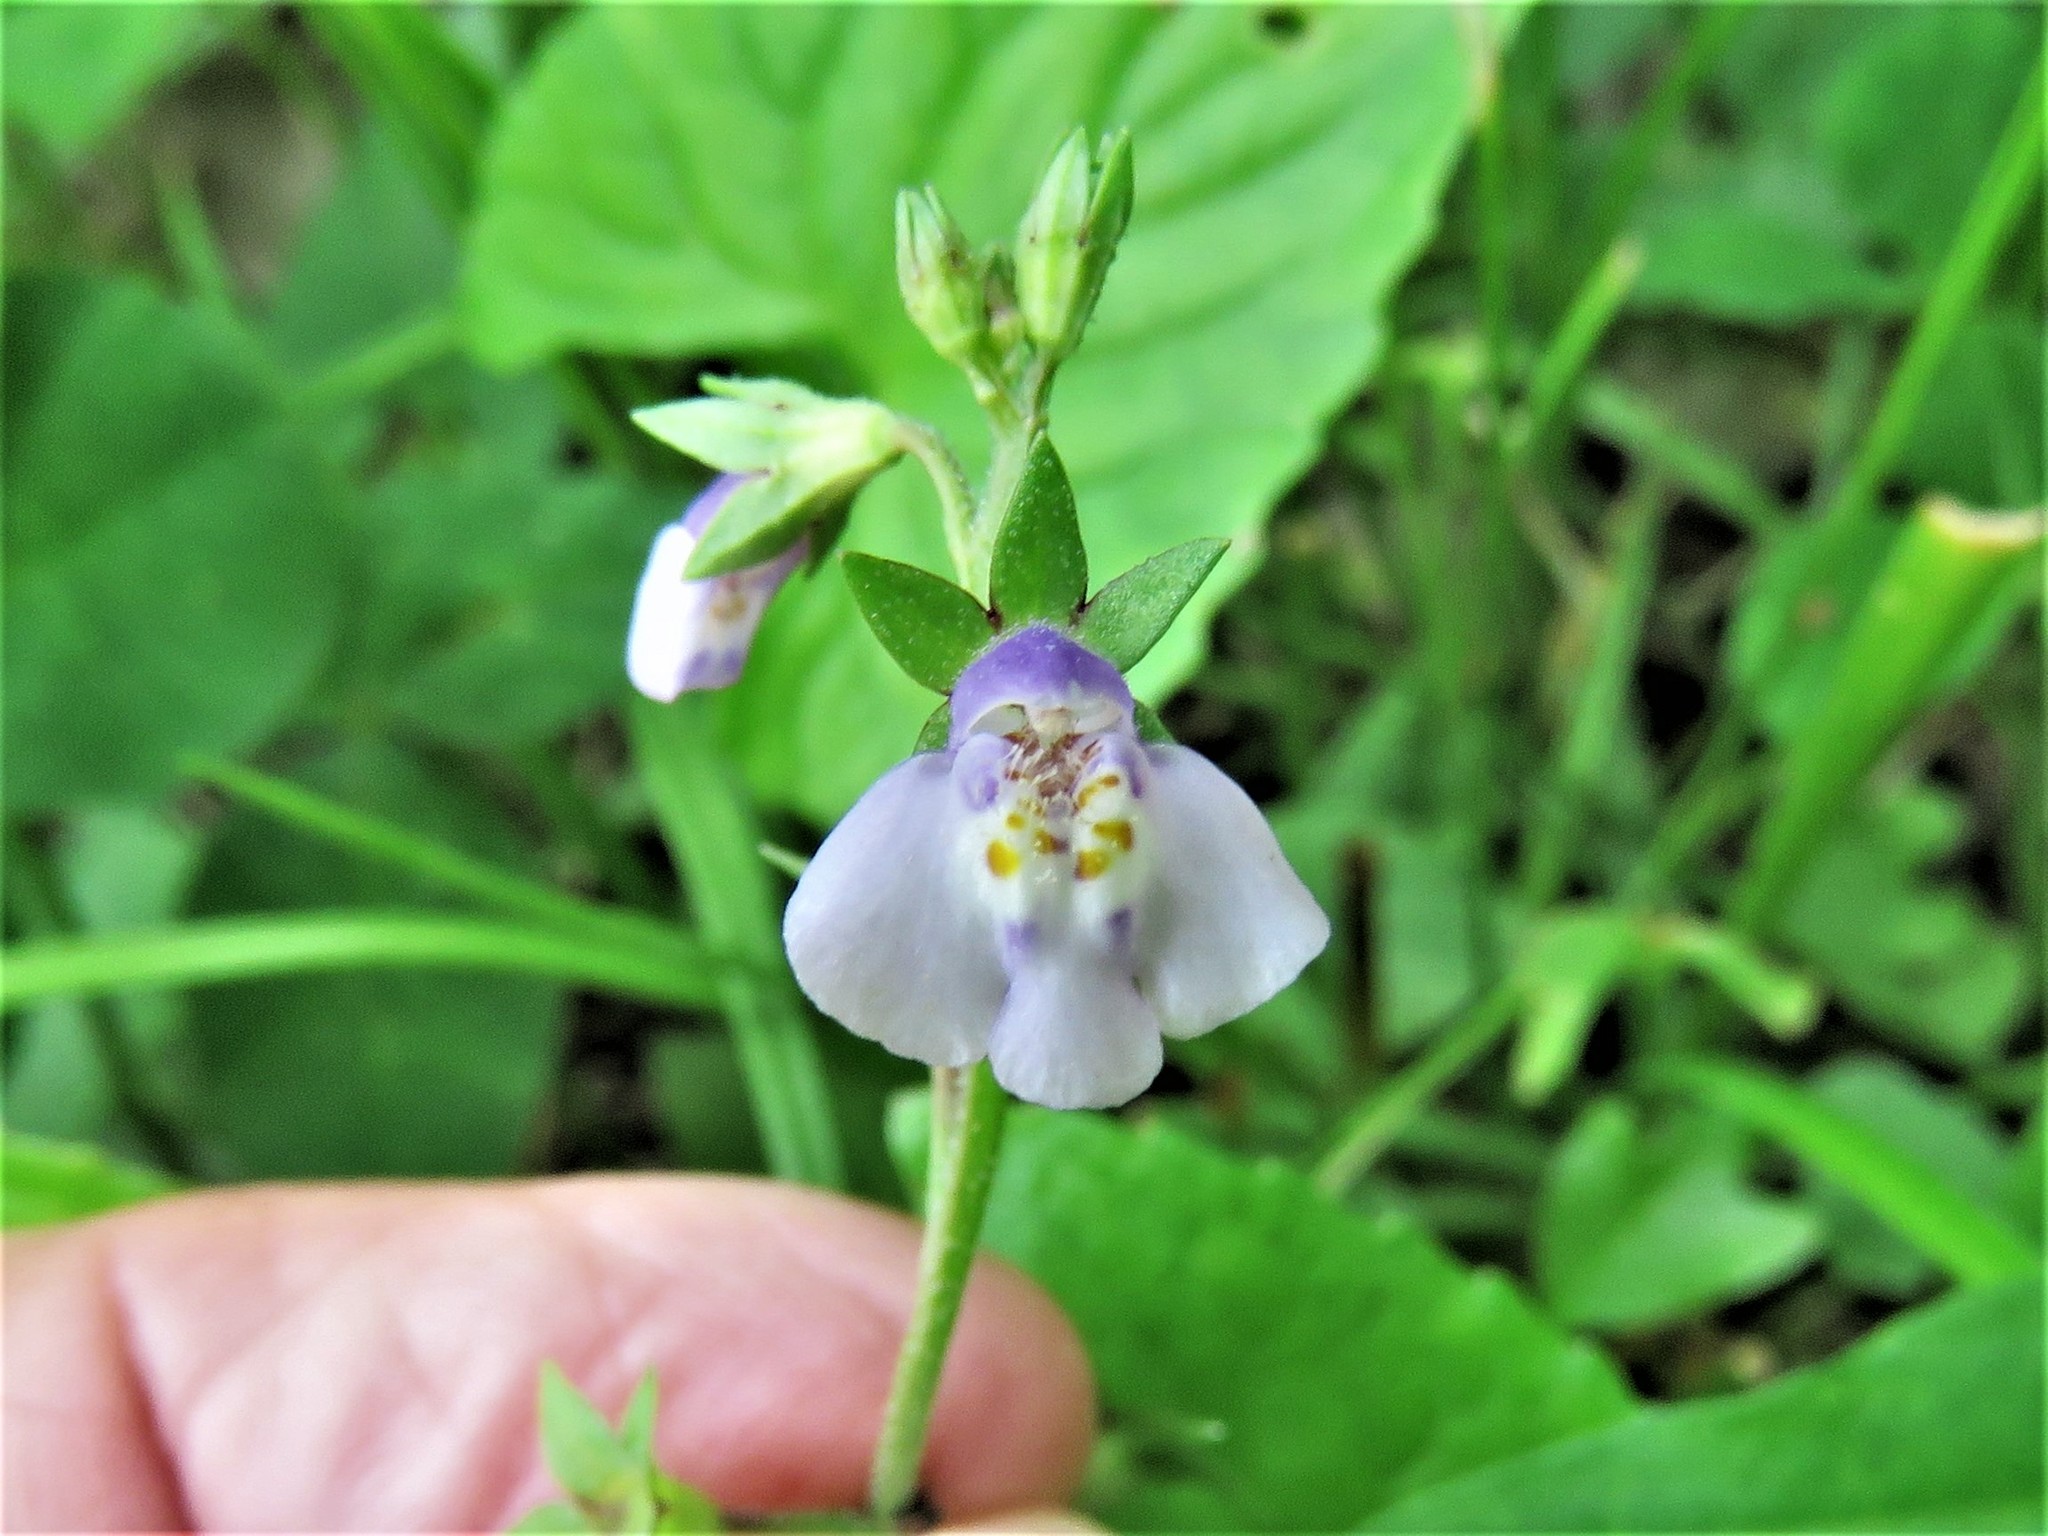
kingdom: Plantae
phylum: Tracheophyta
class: Magnoliopsida
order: Lamiales
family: Mazaceae
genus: Mazus
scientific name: Mazus pumilus
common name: Japanese mazus
